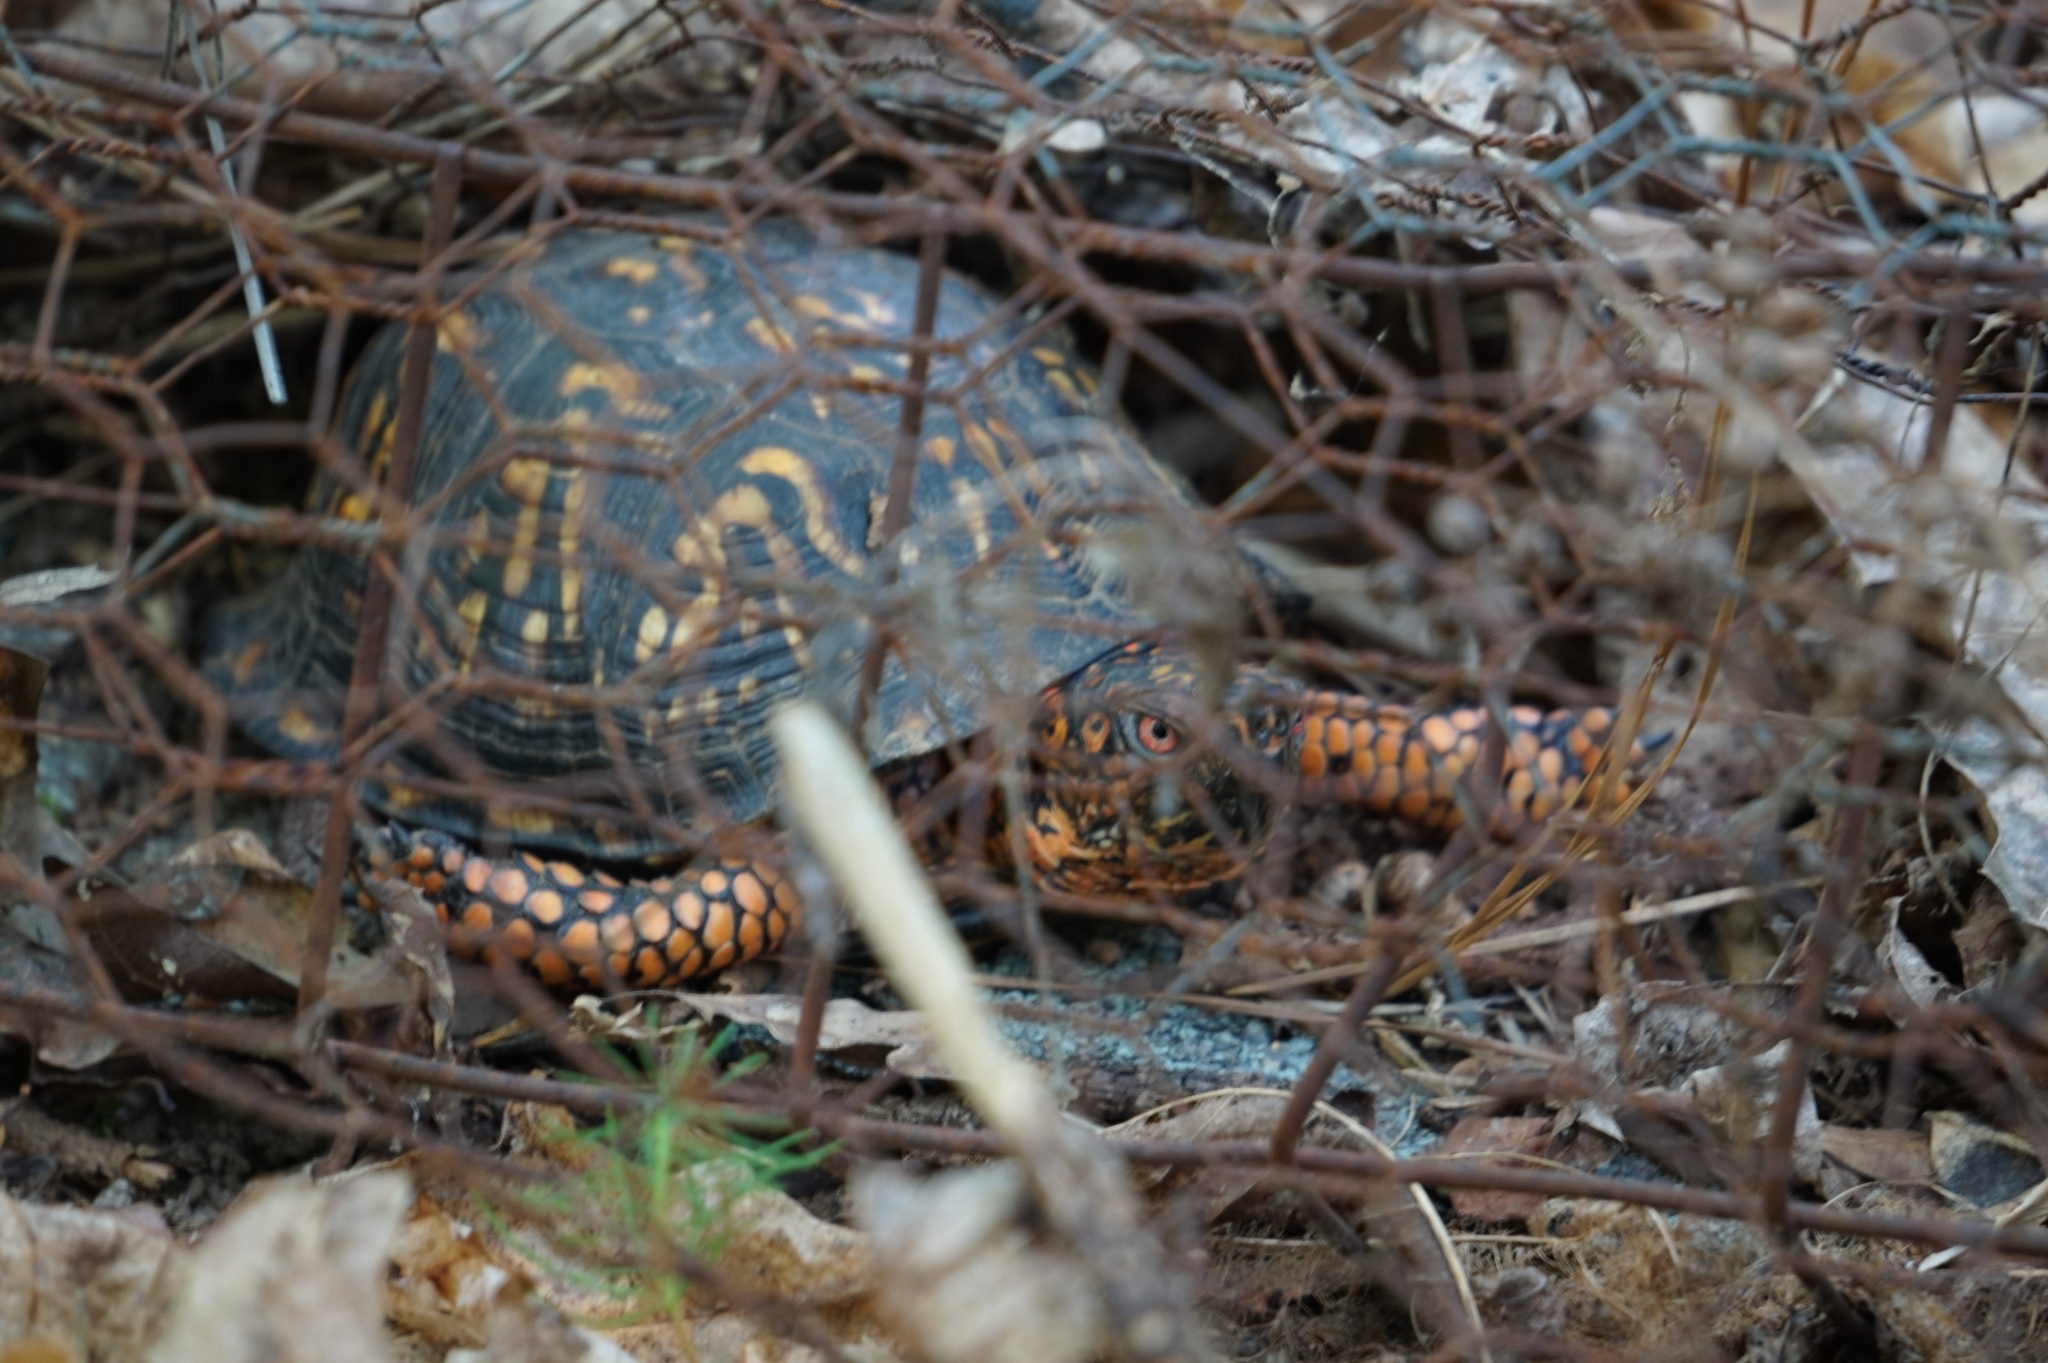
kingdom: Animalia
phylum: Chordata
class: Testudines
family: Emydidae
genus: Terrapene
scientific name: Terrapene carolina
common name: Common box turtle
